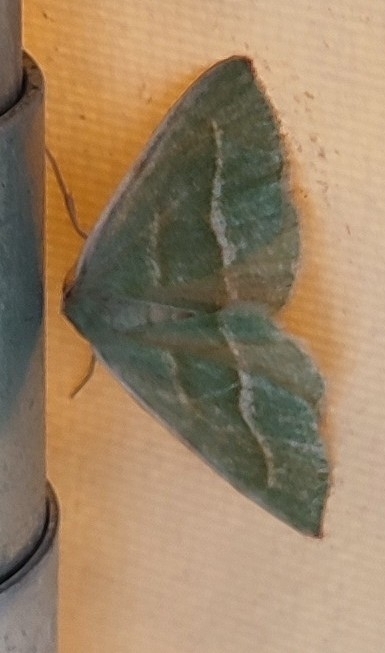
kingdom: Animalia
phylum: Arthropoda
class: Insecta
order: Lepidoptera
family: Geometridae
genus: Hylaea
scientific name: Hylaea fasciaria
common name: Barred red
